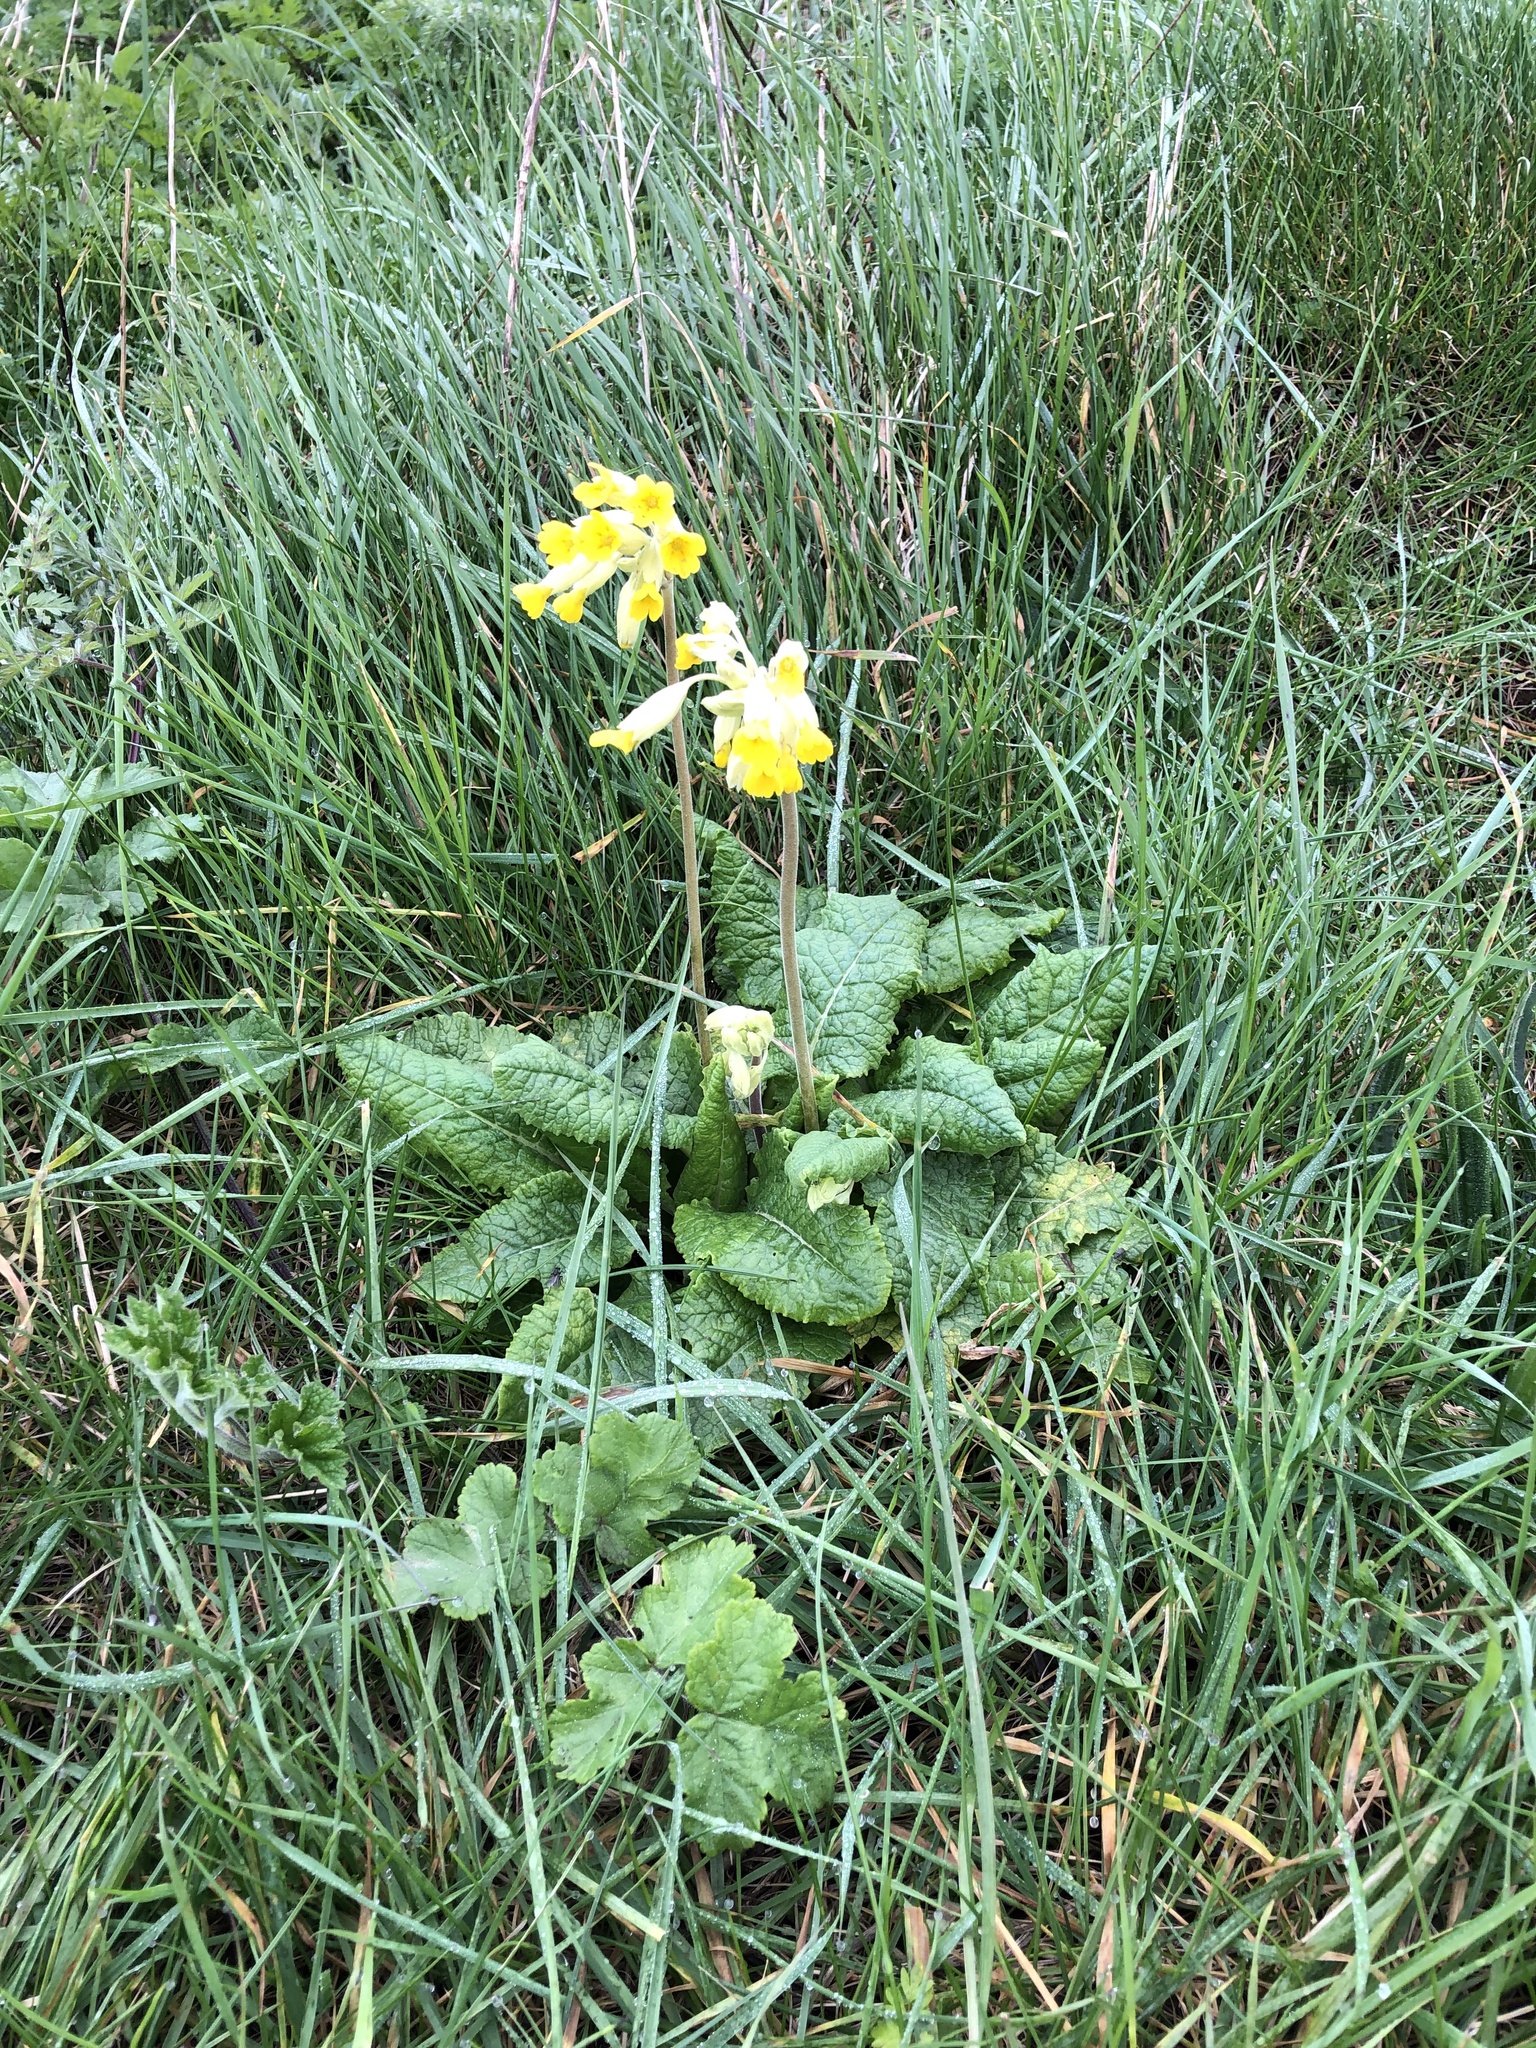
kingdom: Plantae
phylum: Tracheophyta
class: Magnoliopsida
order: Ericales
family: Primulaceae
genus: Primula
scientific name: Primula veris
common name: Cowslip
